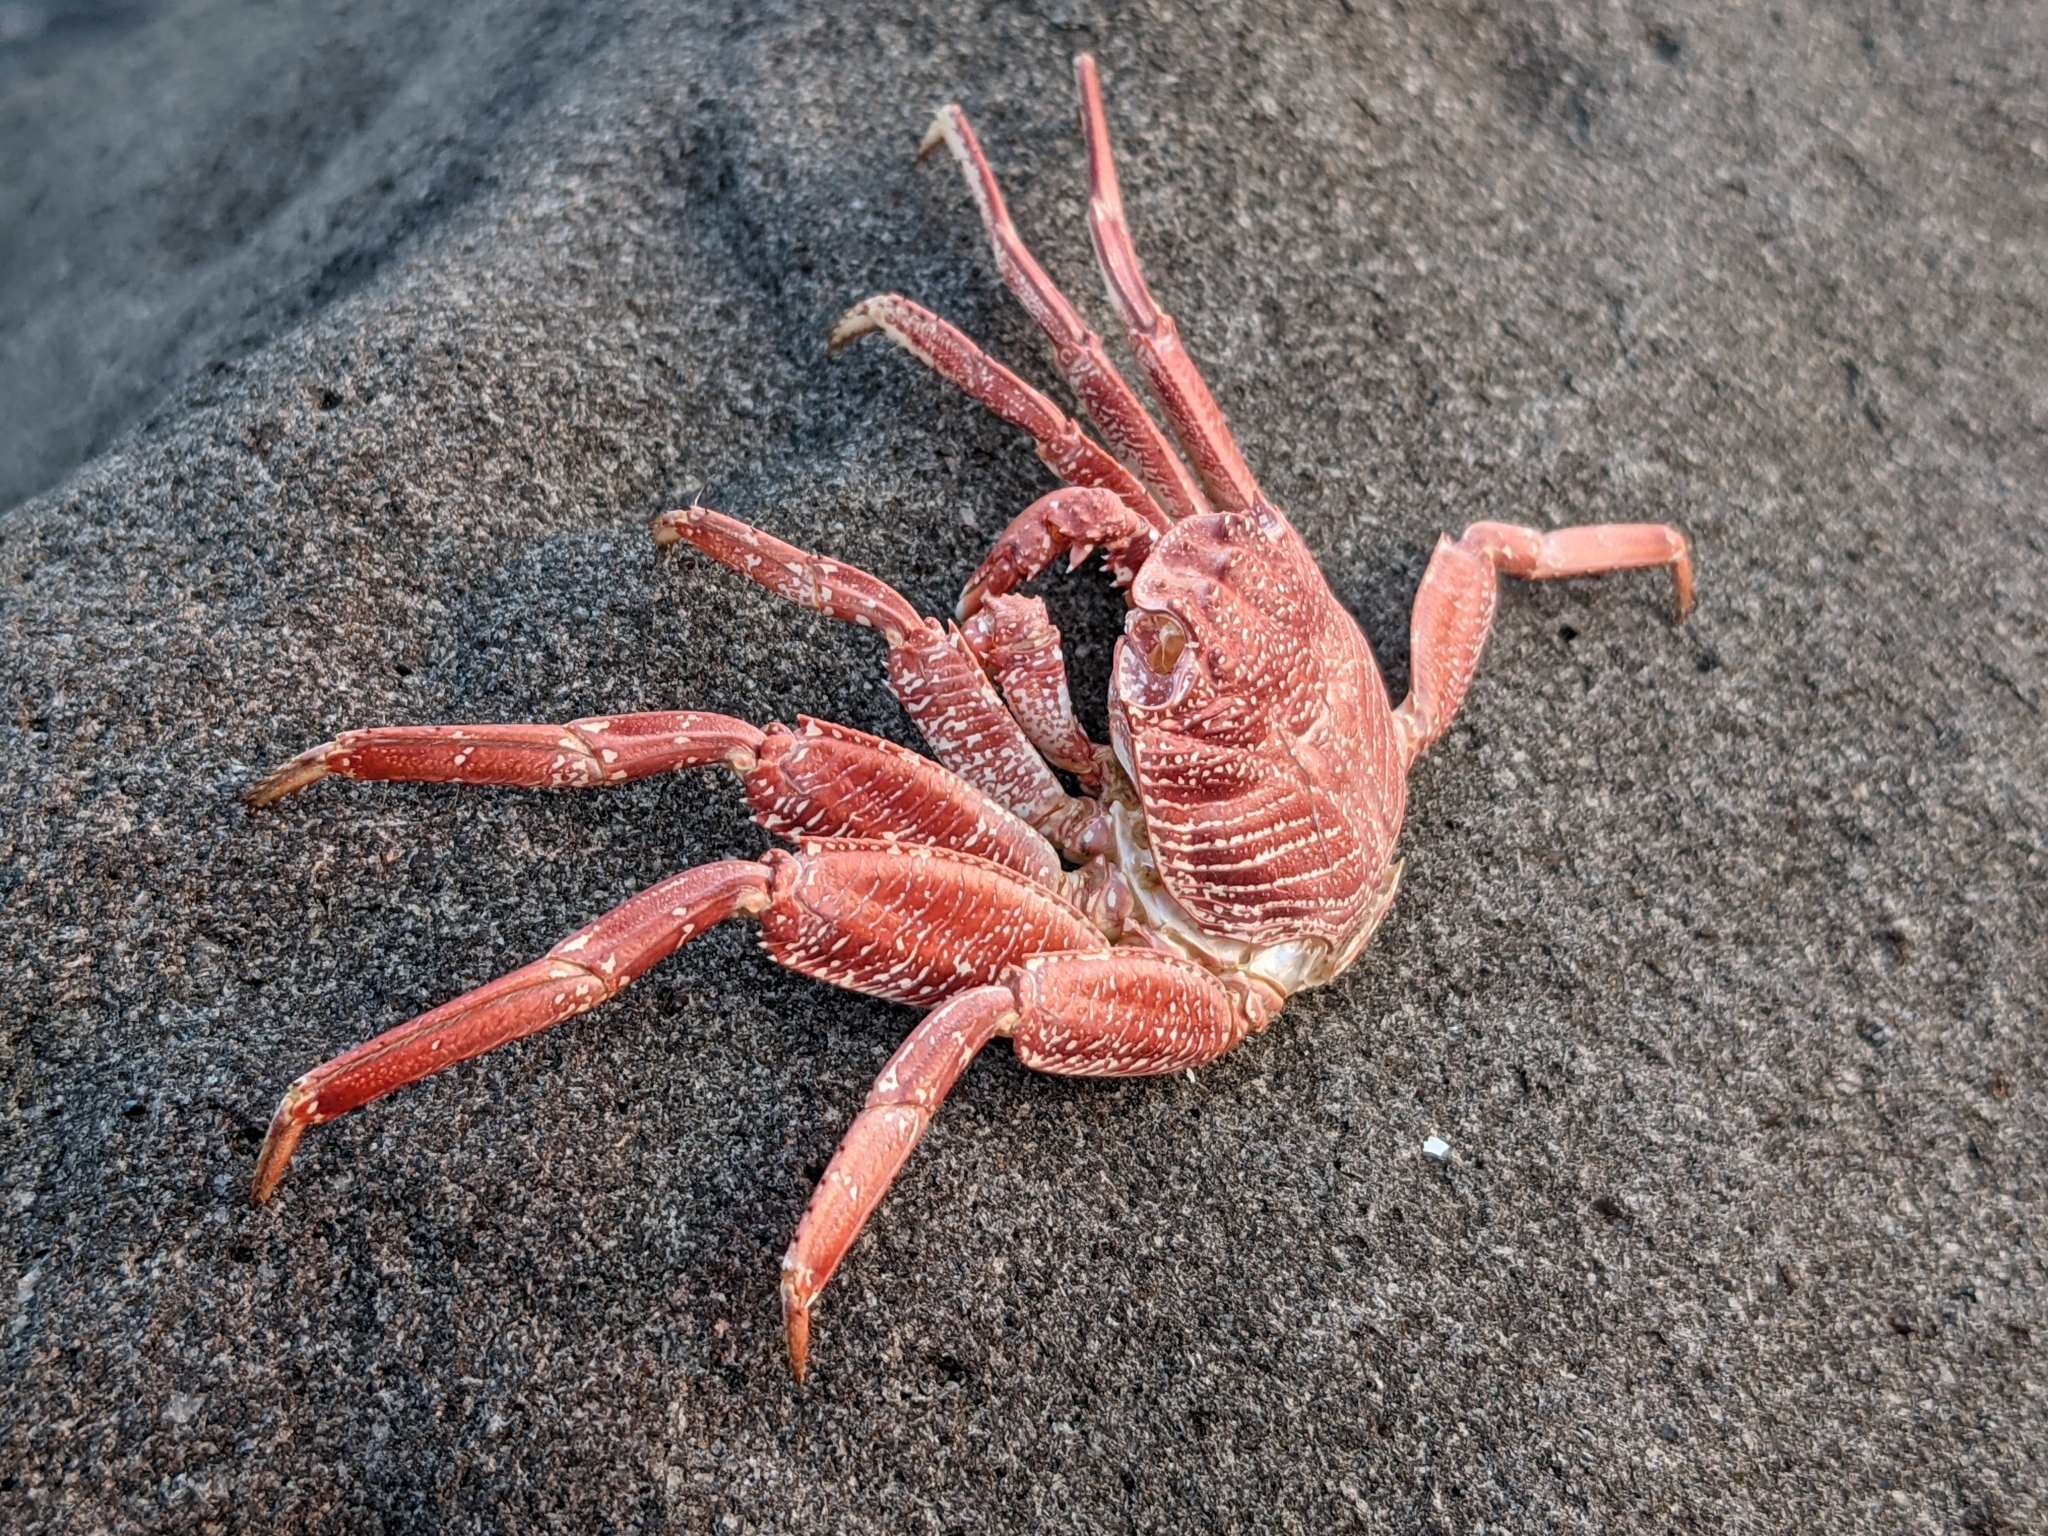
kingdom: Animalia
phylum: Arthropoda
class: Malacostraca
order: Decapoda
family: Grapsidae
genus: Grapsus
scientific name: Grapsus tenuicrustatus
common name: Natal lightfoot crab
